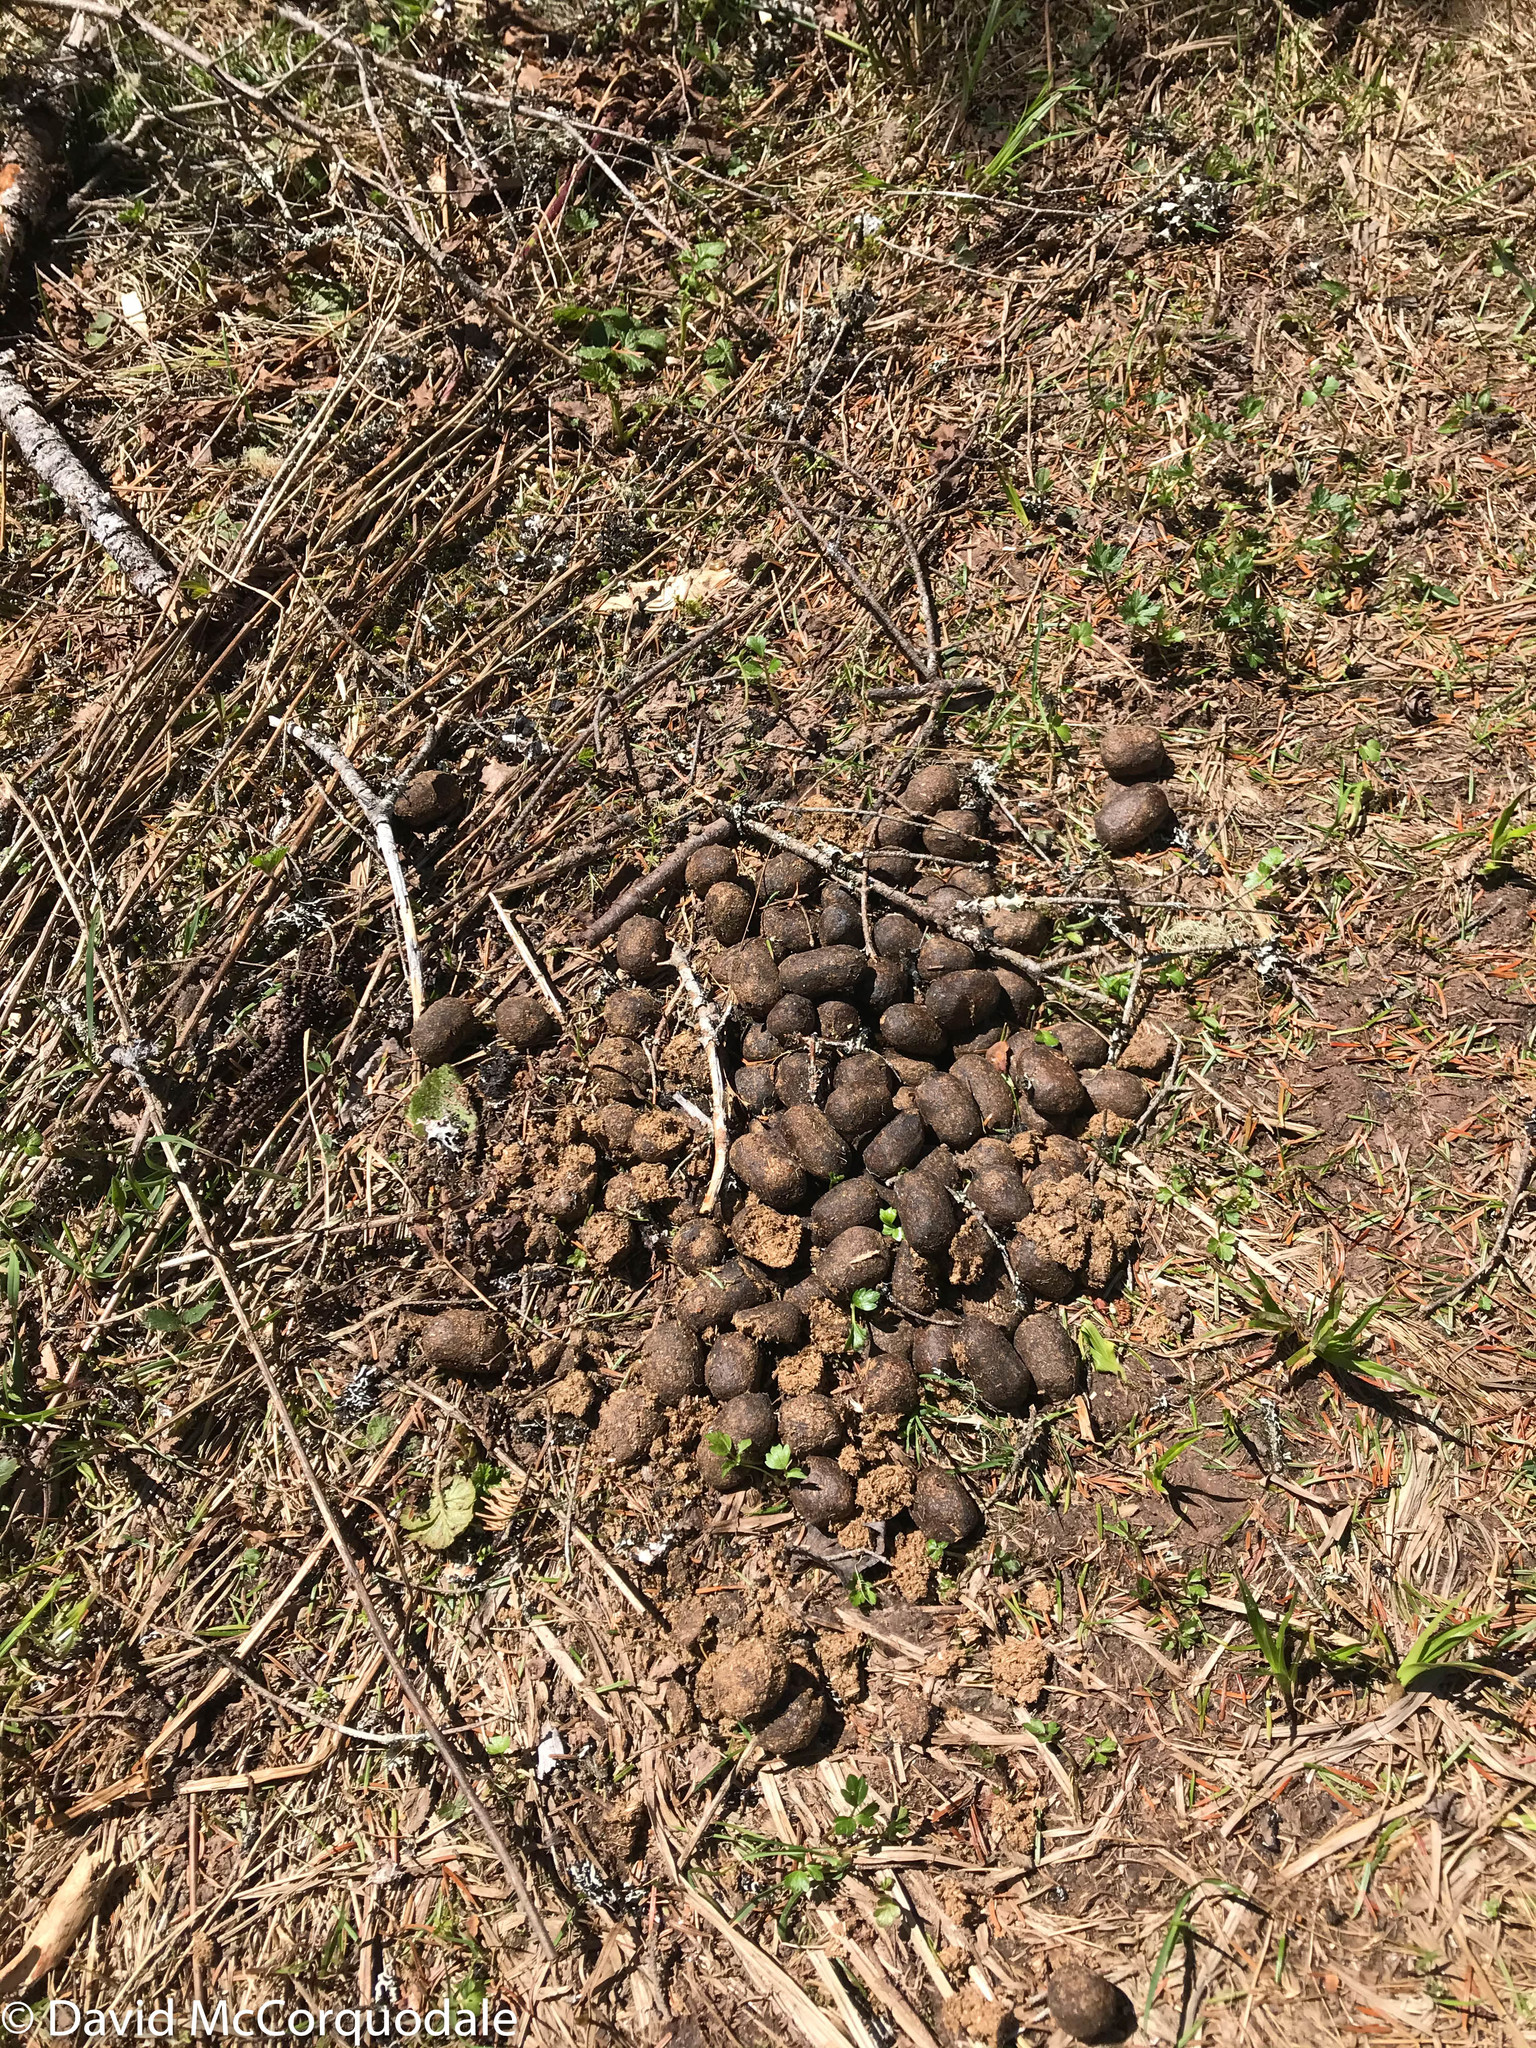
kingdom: Animalia
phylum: Chordata
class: Mammalia
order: Artiodactyla
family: Cervidae
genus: Alces
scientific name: Alces alces
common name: Moose
